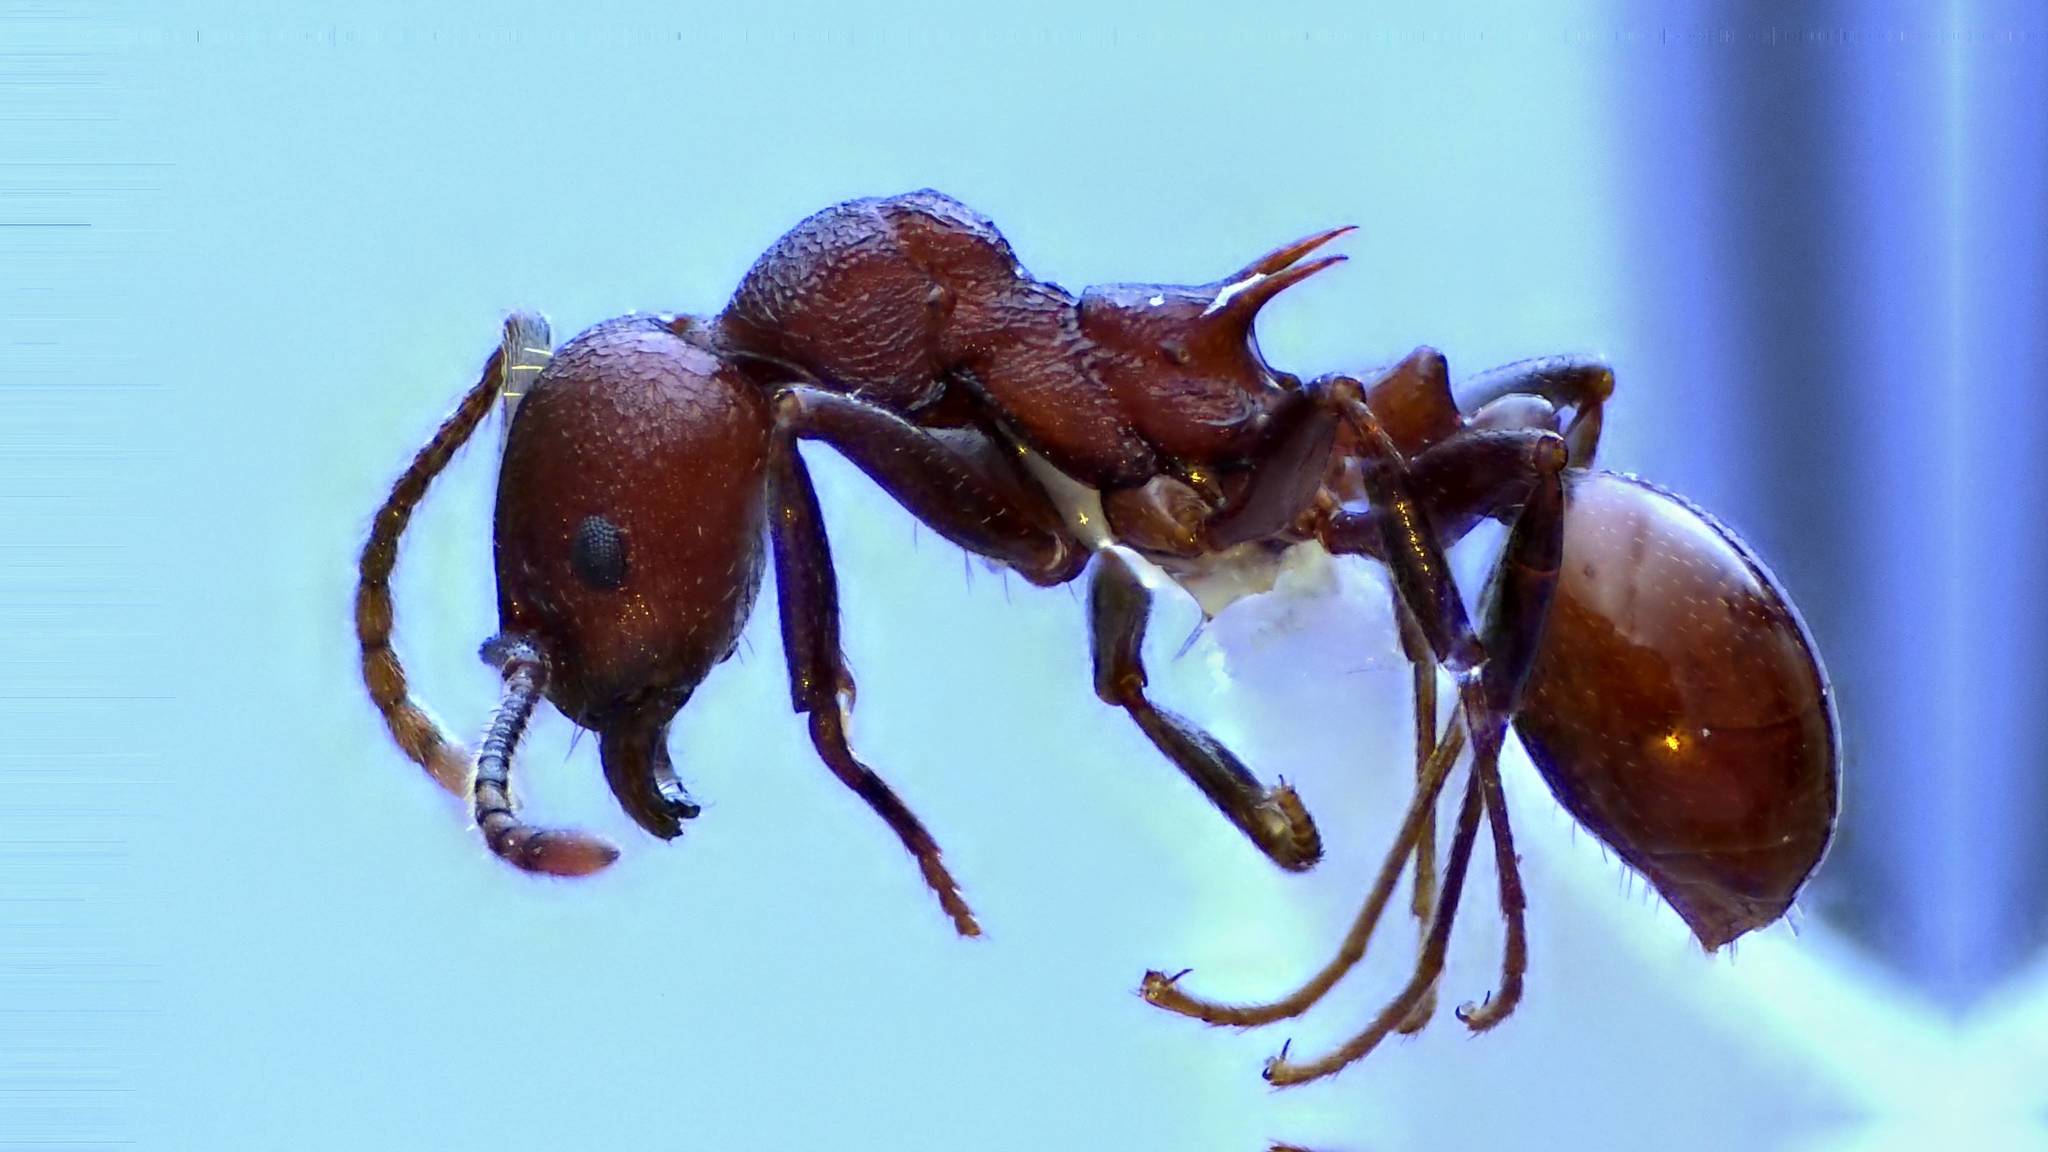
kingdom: Animalia
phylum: Arthropoda
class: Insecta
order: Hymenoptera
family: Formicidae
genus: Aphaenogaster
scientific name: Aphaenogaster tennesseensis
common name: Tennessee thread-waisted ant
